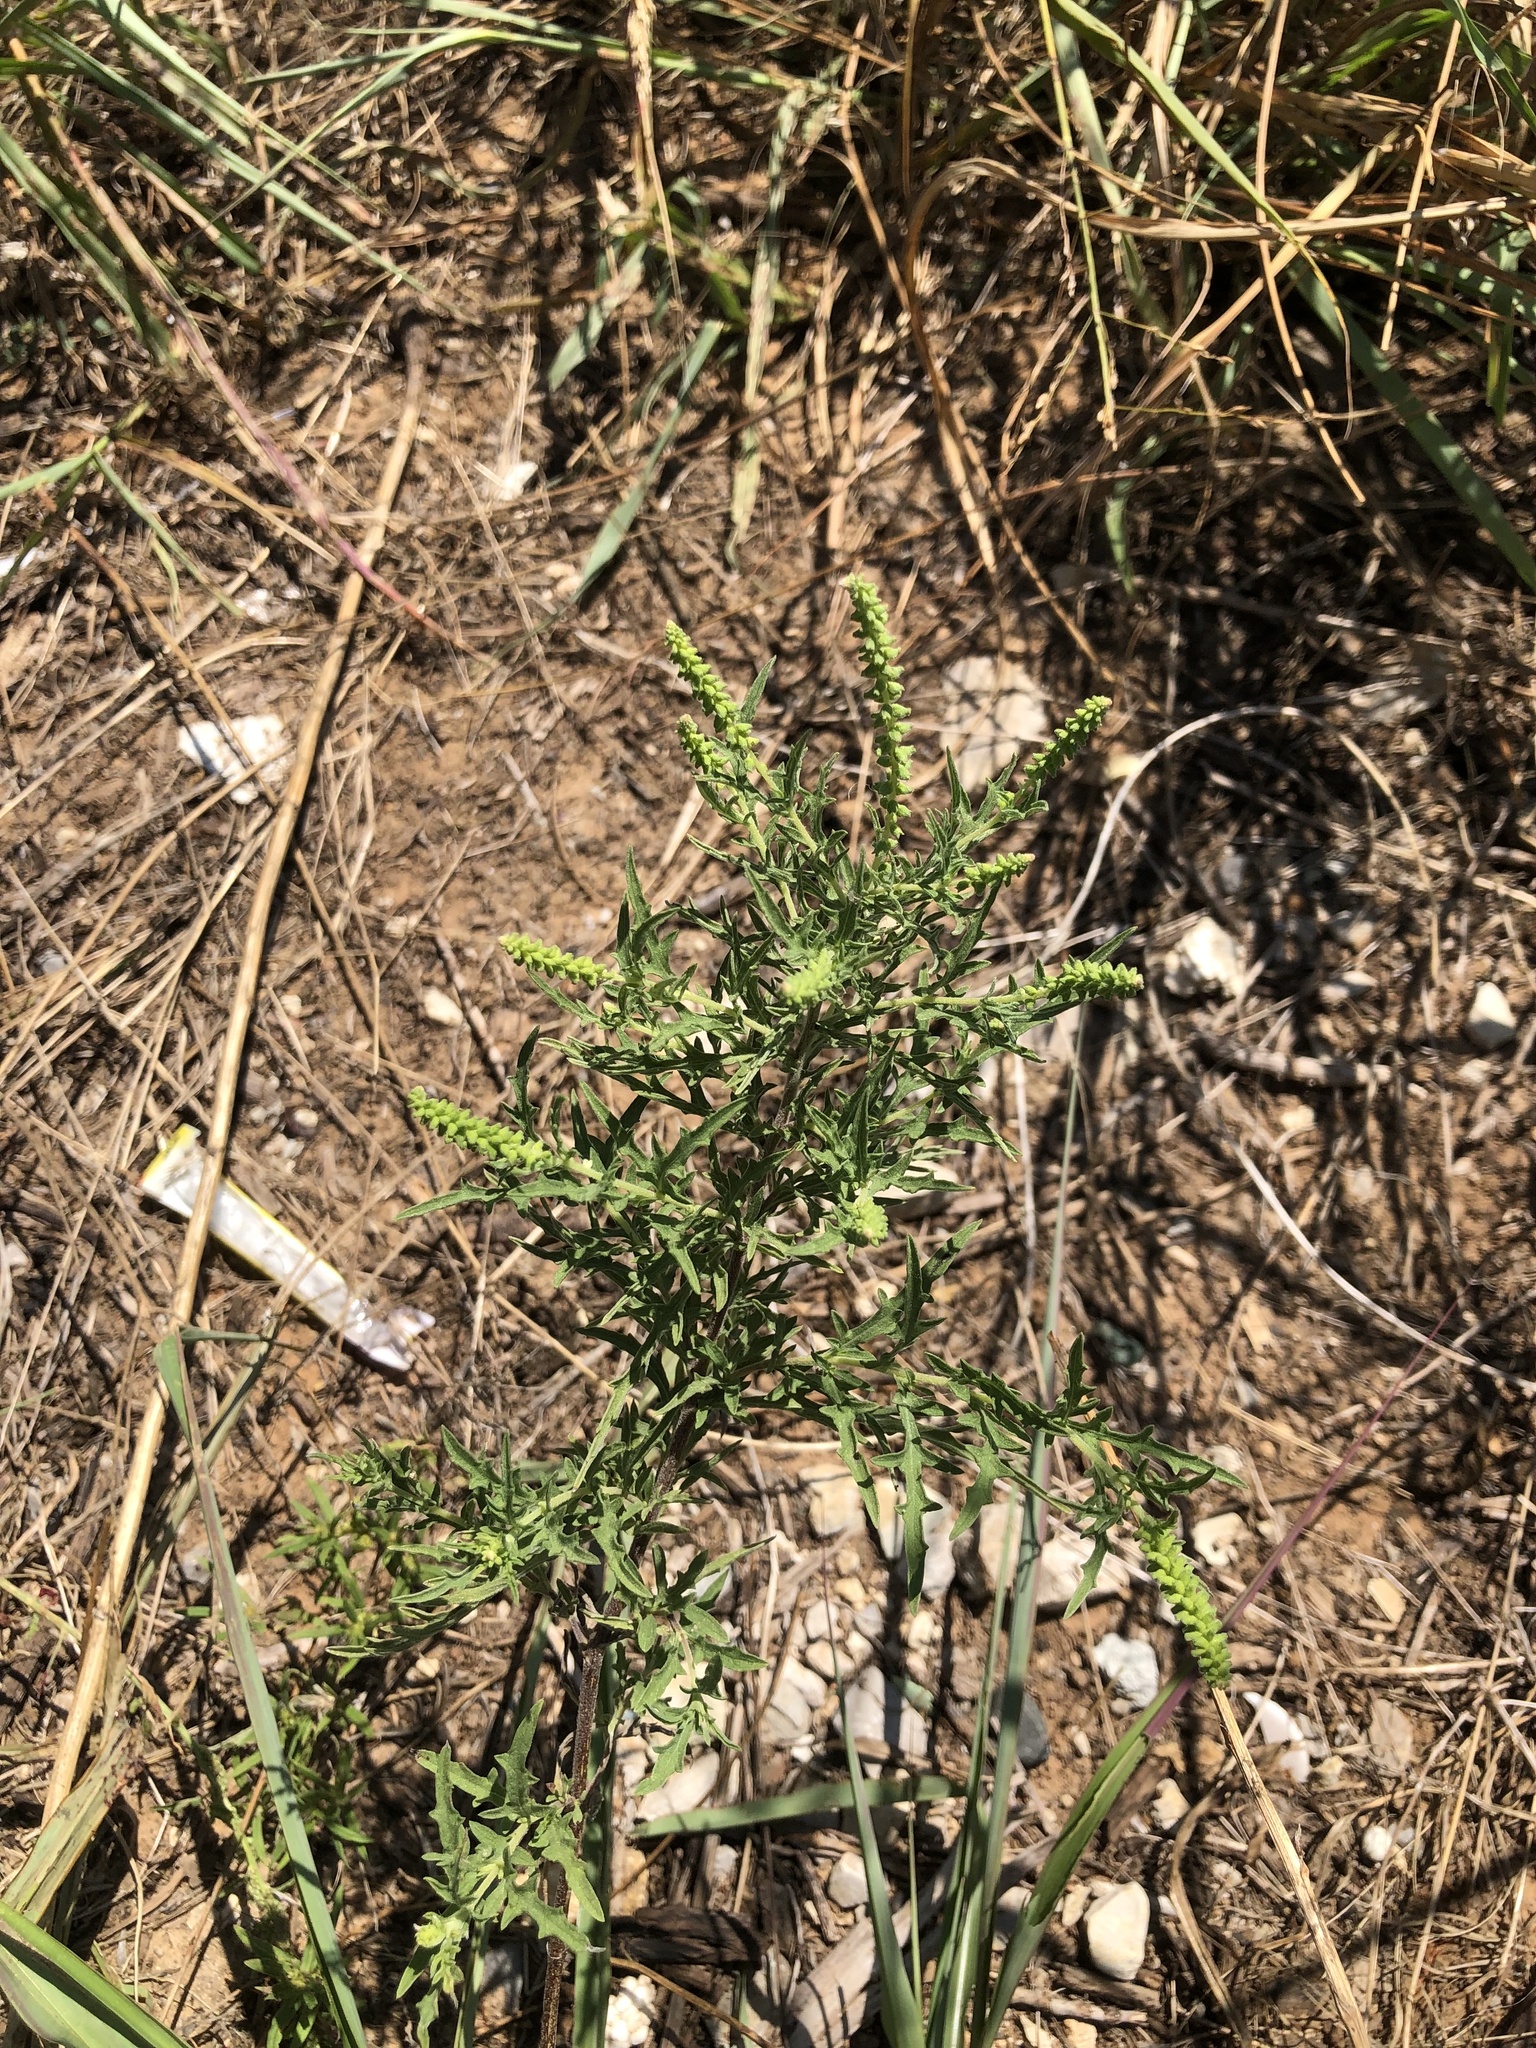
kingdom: Plantae
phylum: Tracheophyta
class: Magnoliopsida
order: Asterales
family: Asteraceae
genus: Ambrosia
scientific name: Ambrosia psilostachya
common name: Perennial ragweed
